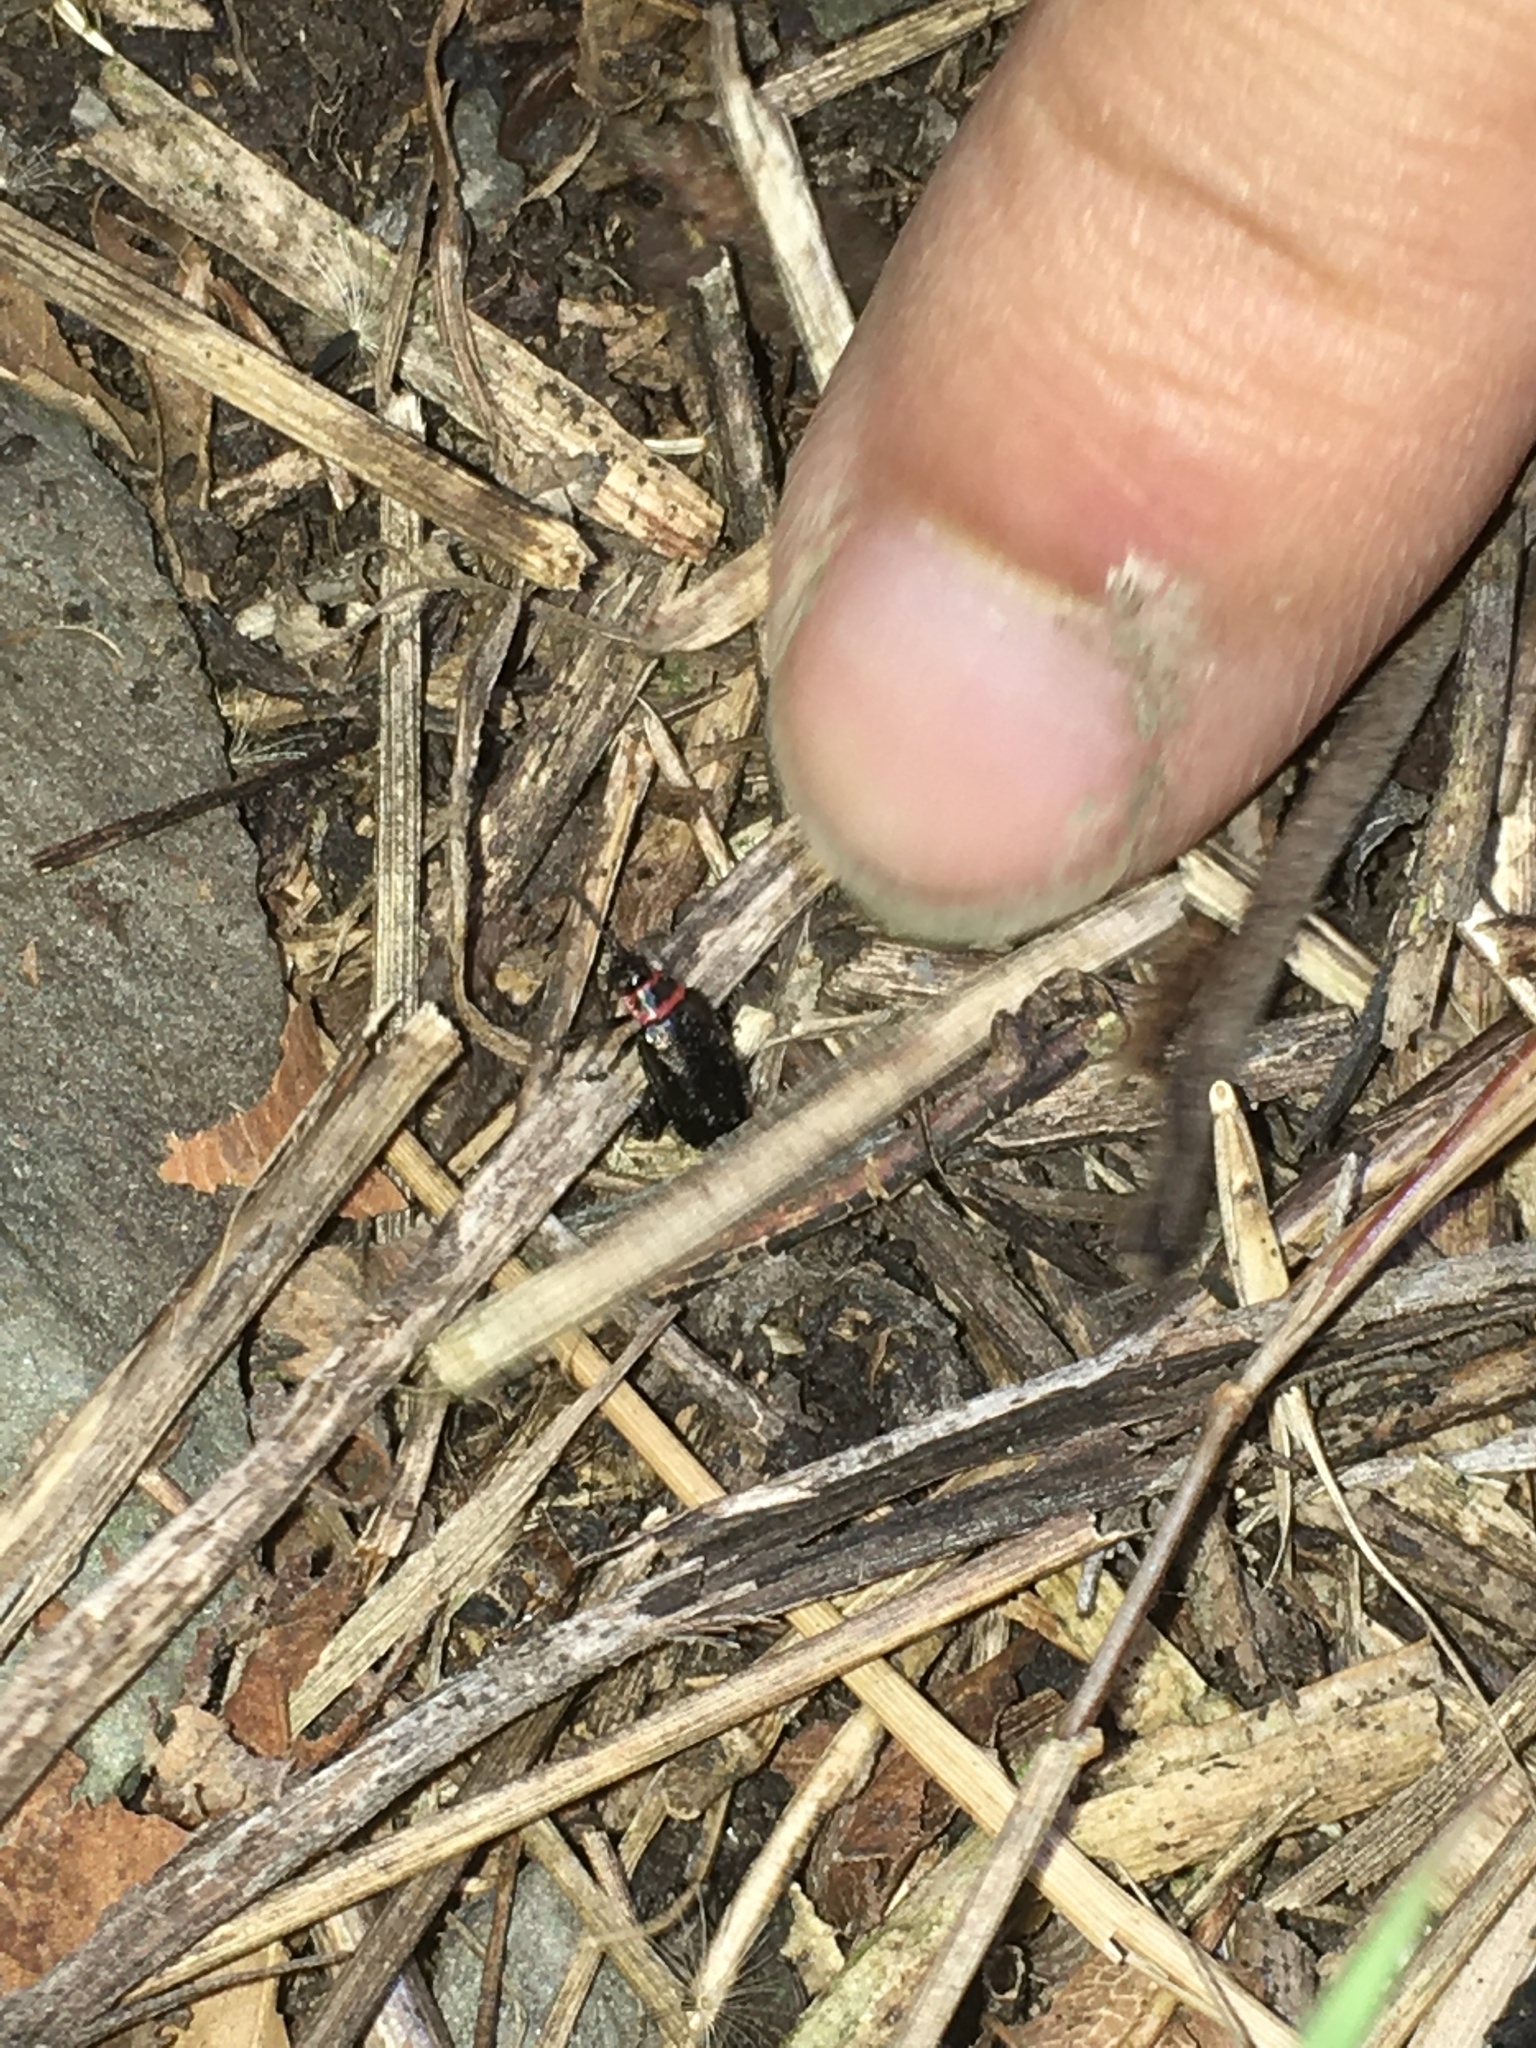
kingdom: Animalia
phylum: Arthropoda
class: Insecta
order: Coleoptera
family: Chrysomelidae
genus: Kuschelina
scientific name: Kuschelina vians
